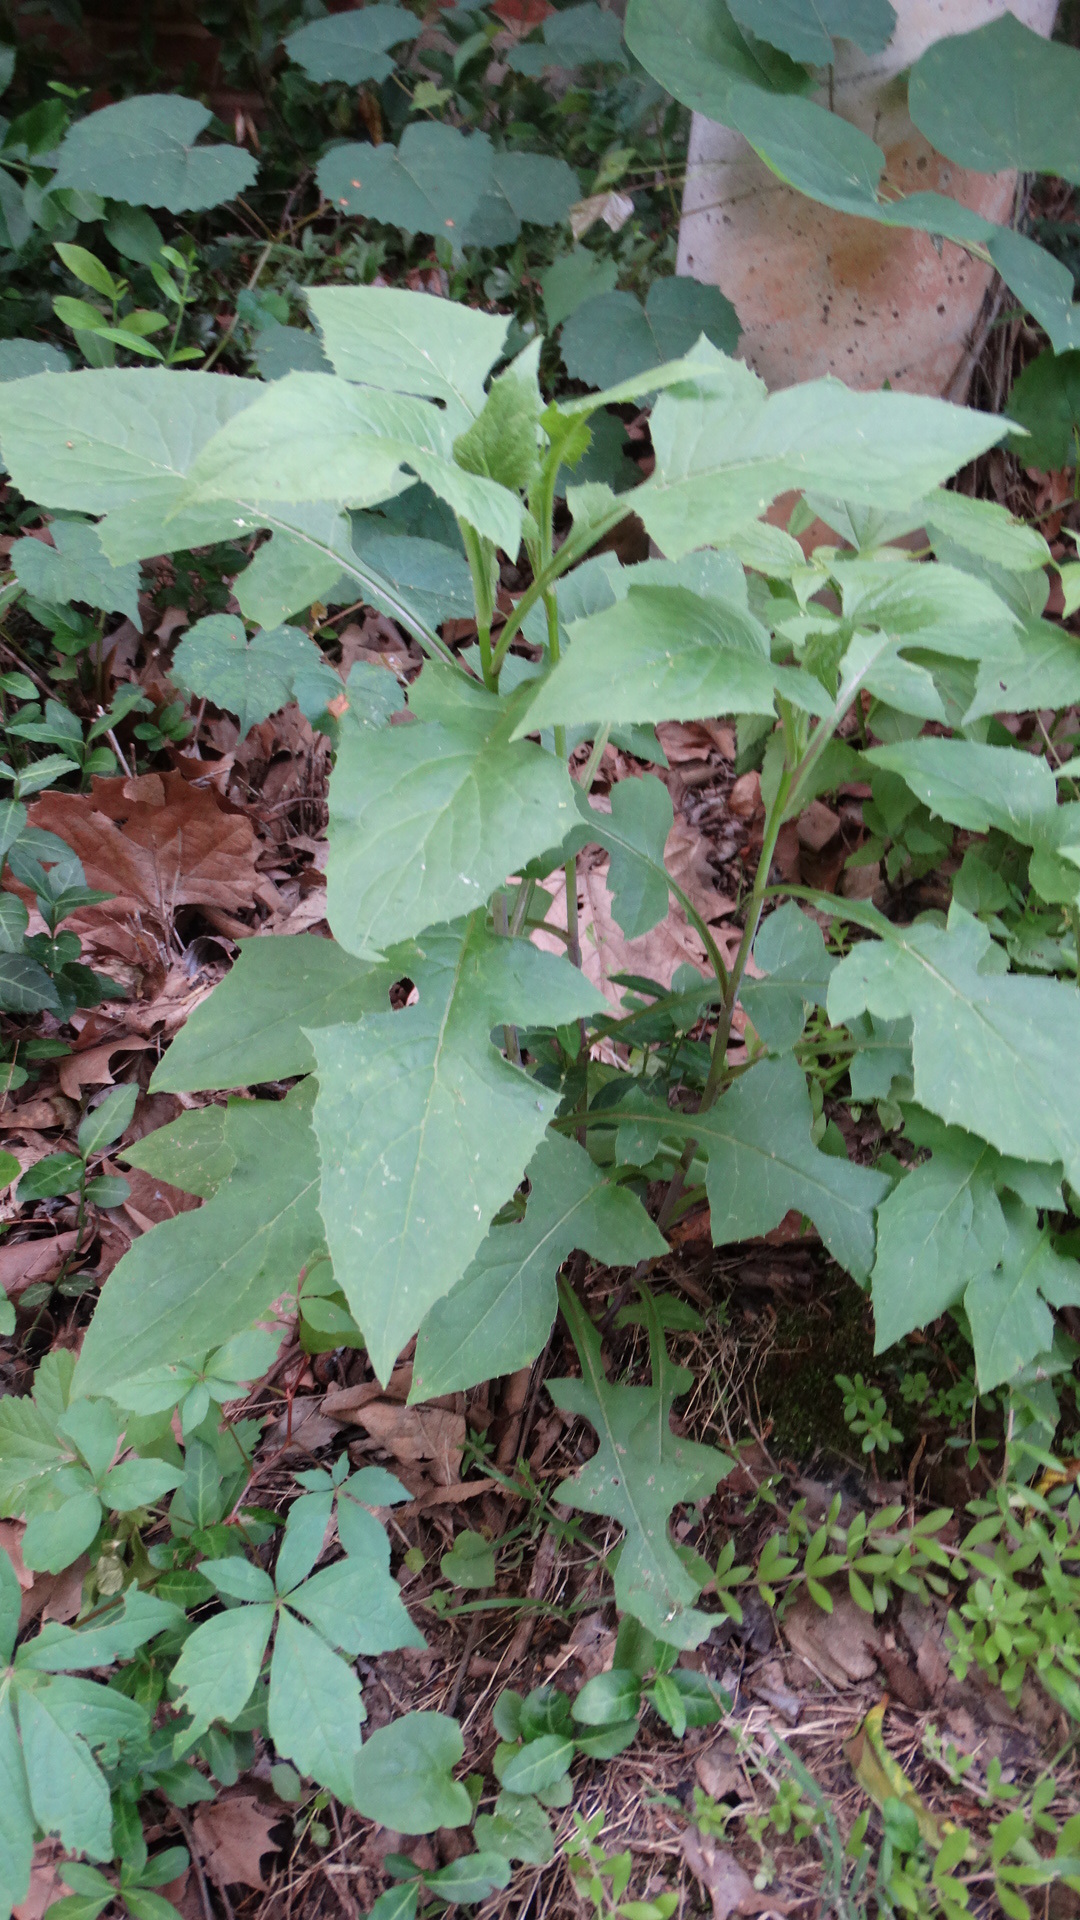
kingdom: Plantae
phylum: Tracheophyta
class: Magnoliopsida
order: Asterales
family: Asteraceae
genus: Lactuca
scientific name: Lactuca floridana
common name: Woodland lettuce
